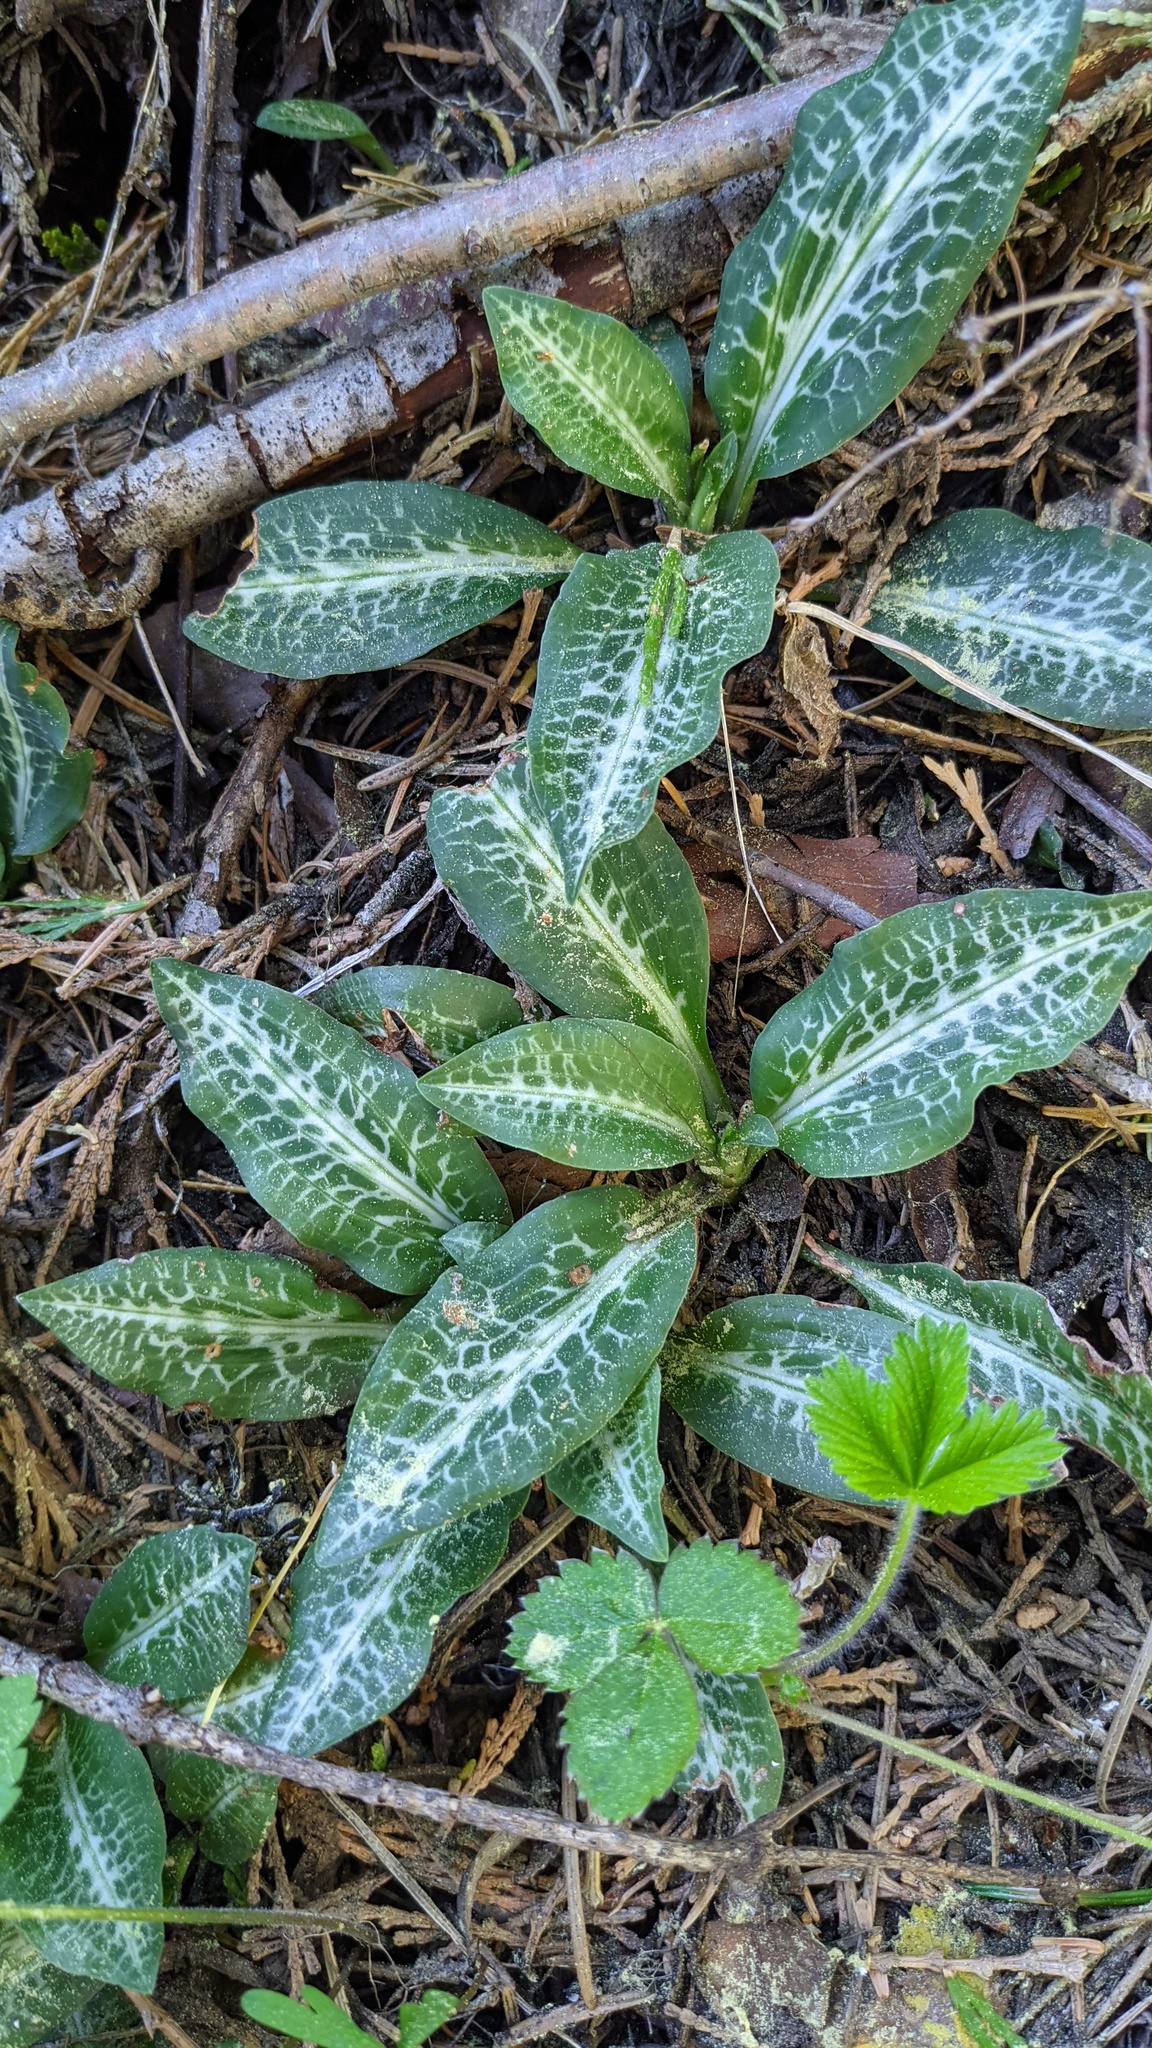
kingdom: Plantae
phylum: Tracheophyta
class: Liliopsida
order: Asparagales
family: Orchidaceae
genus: Goodyera
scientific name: Goodyera oblongifolia
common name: Giant rattlesnake-plantain
